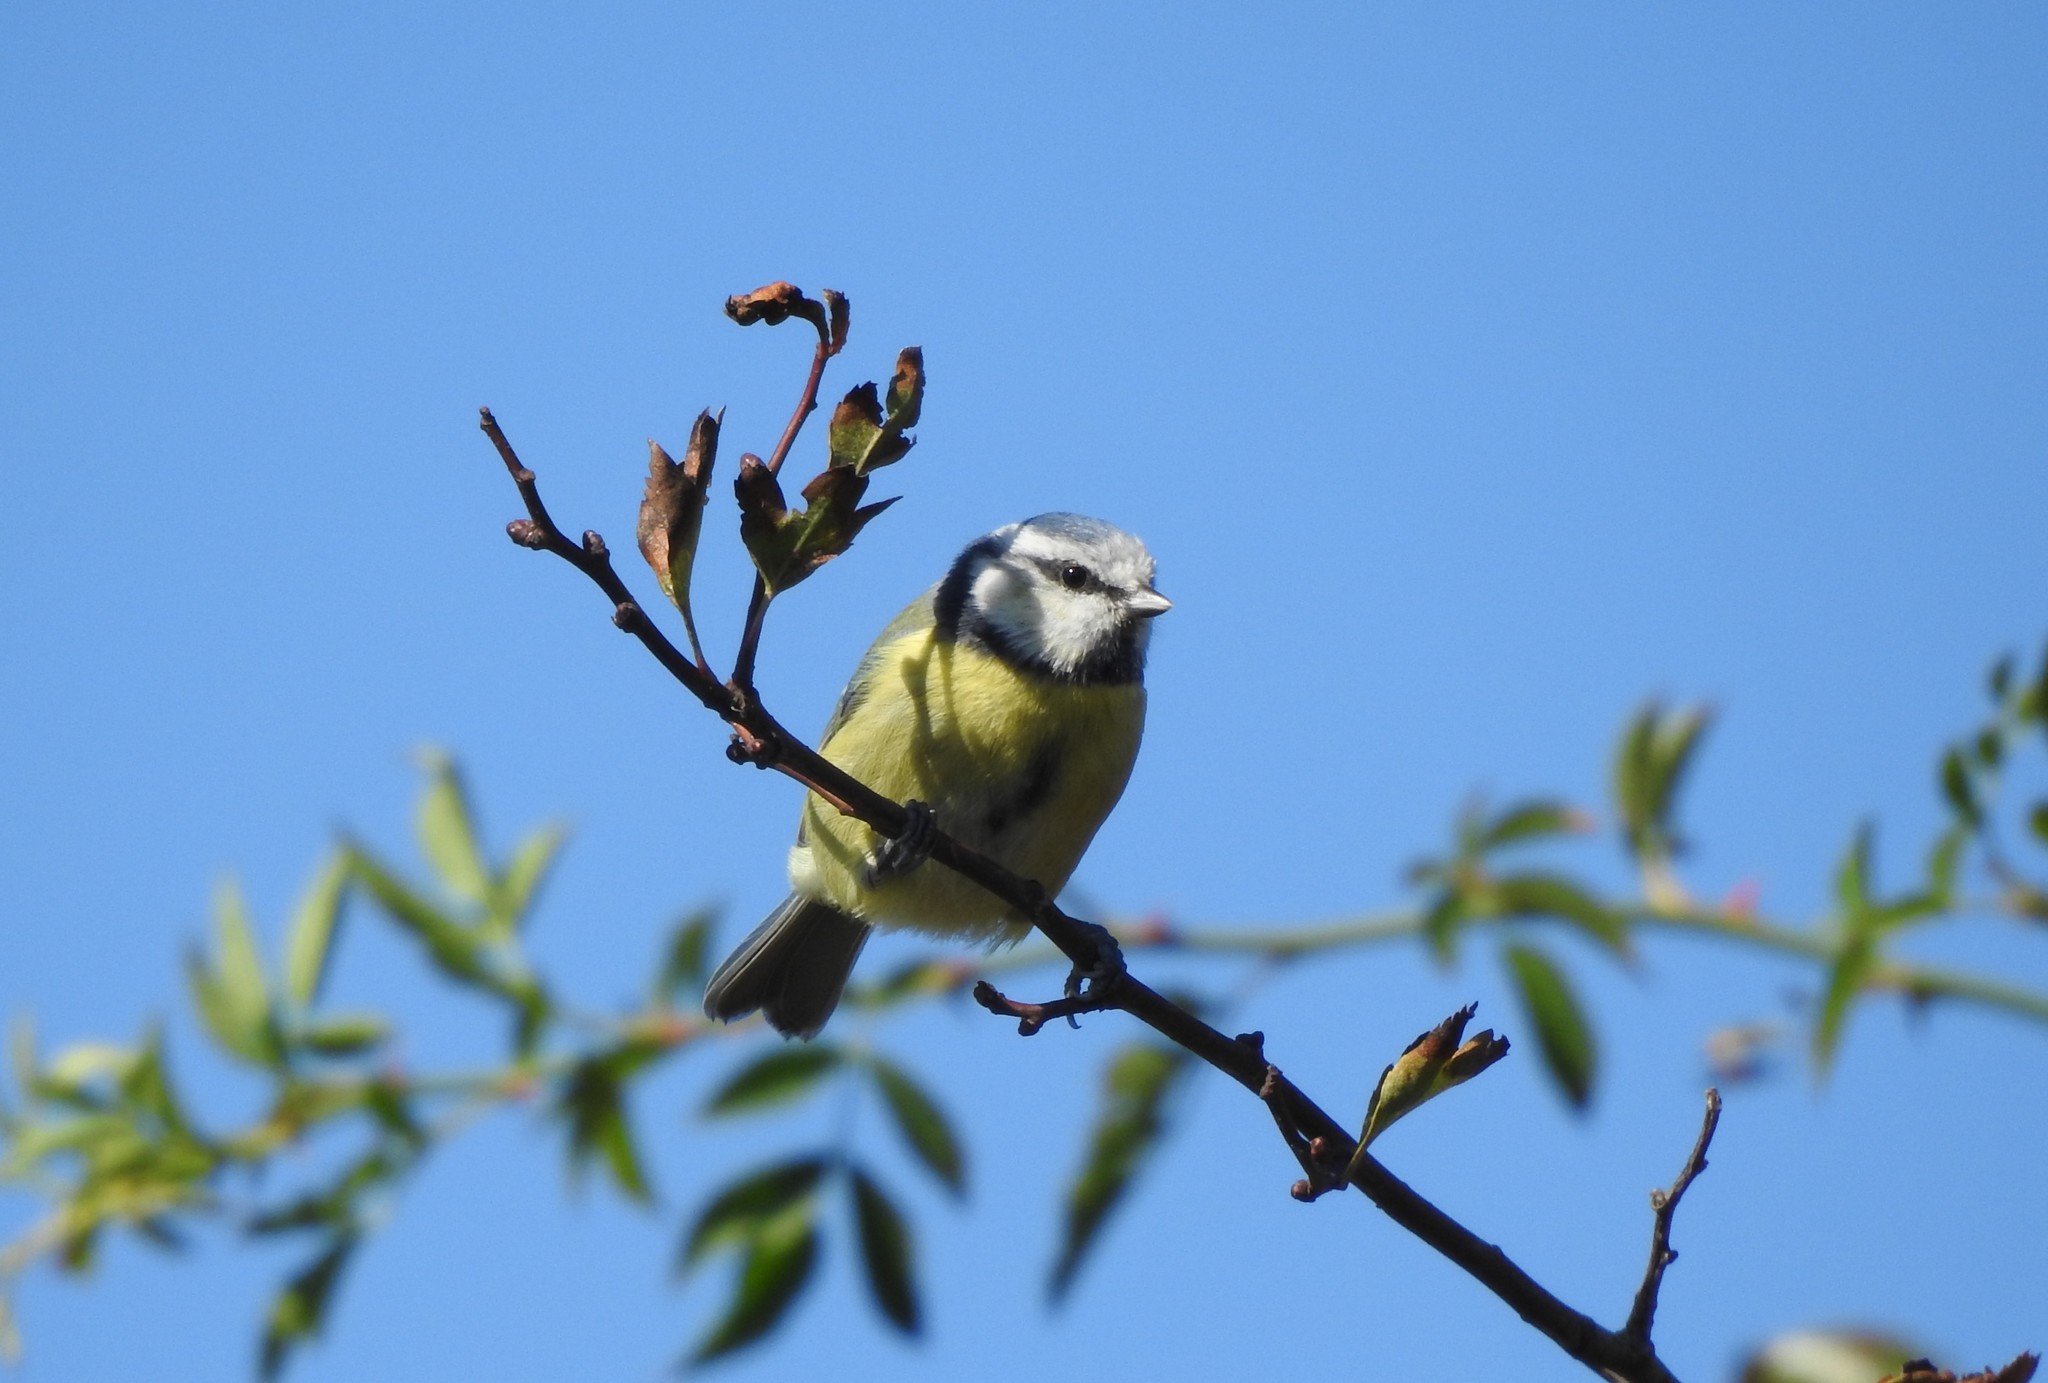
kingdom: Animalia
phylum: Chordata
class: Aves
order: Passeriformes
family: Paridae
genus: Cyanistes
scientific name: Cyanistes caeruleus
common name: Eurasian blue tit
